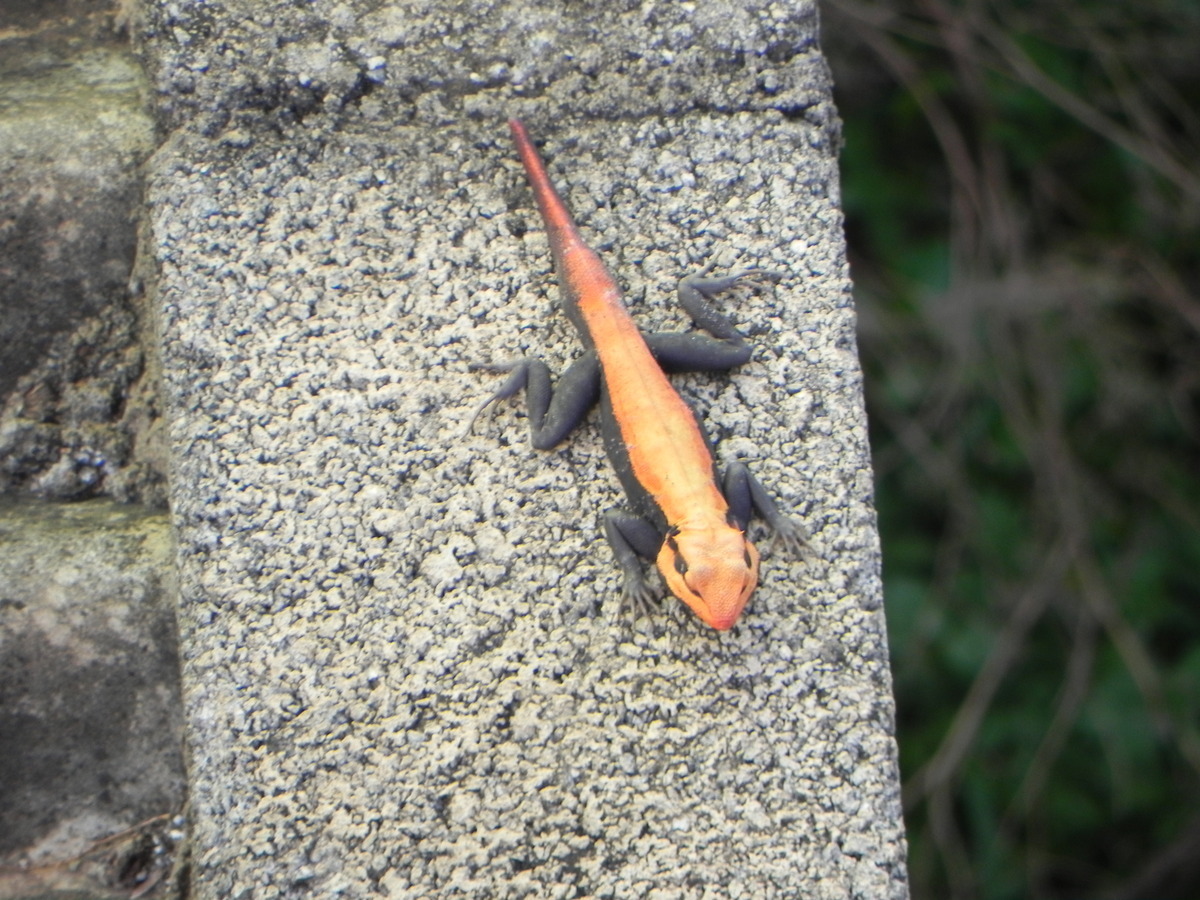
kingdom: Animalia
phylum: Chordata
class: Squamata
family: Agamidae
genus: Psammophilus
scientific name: Psammophilus dorsalis
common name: South indian rock agama
